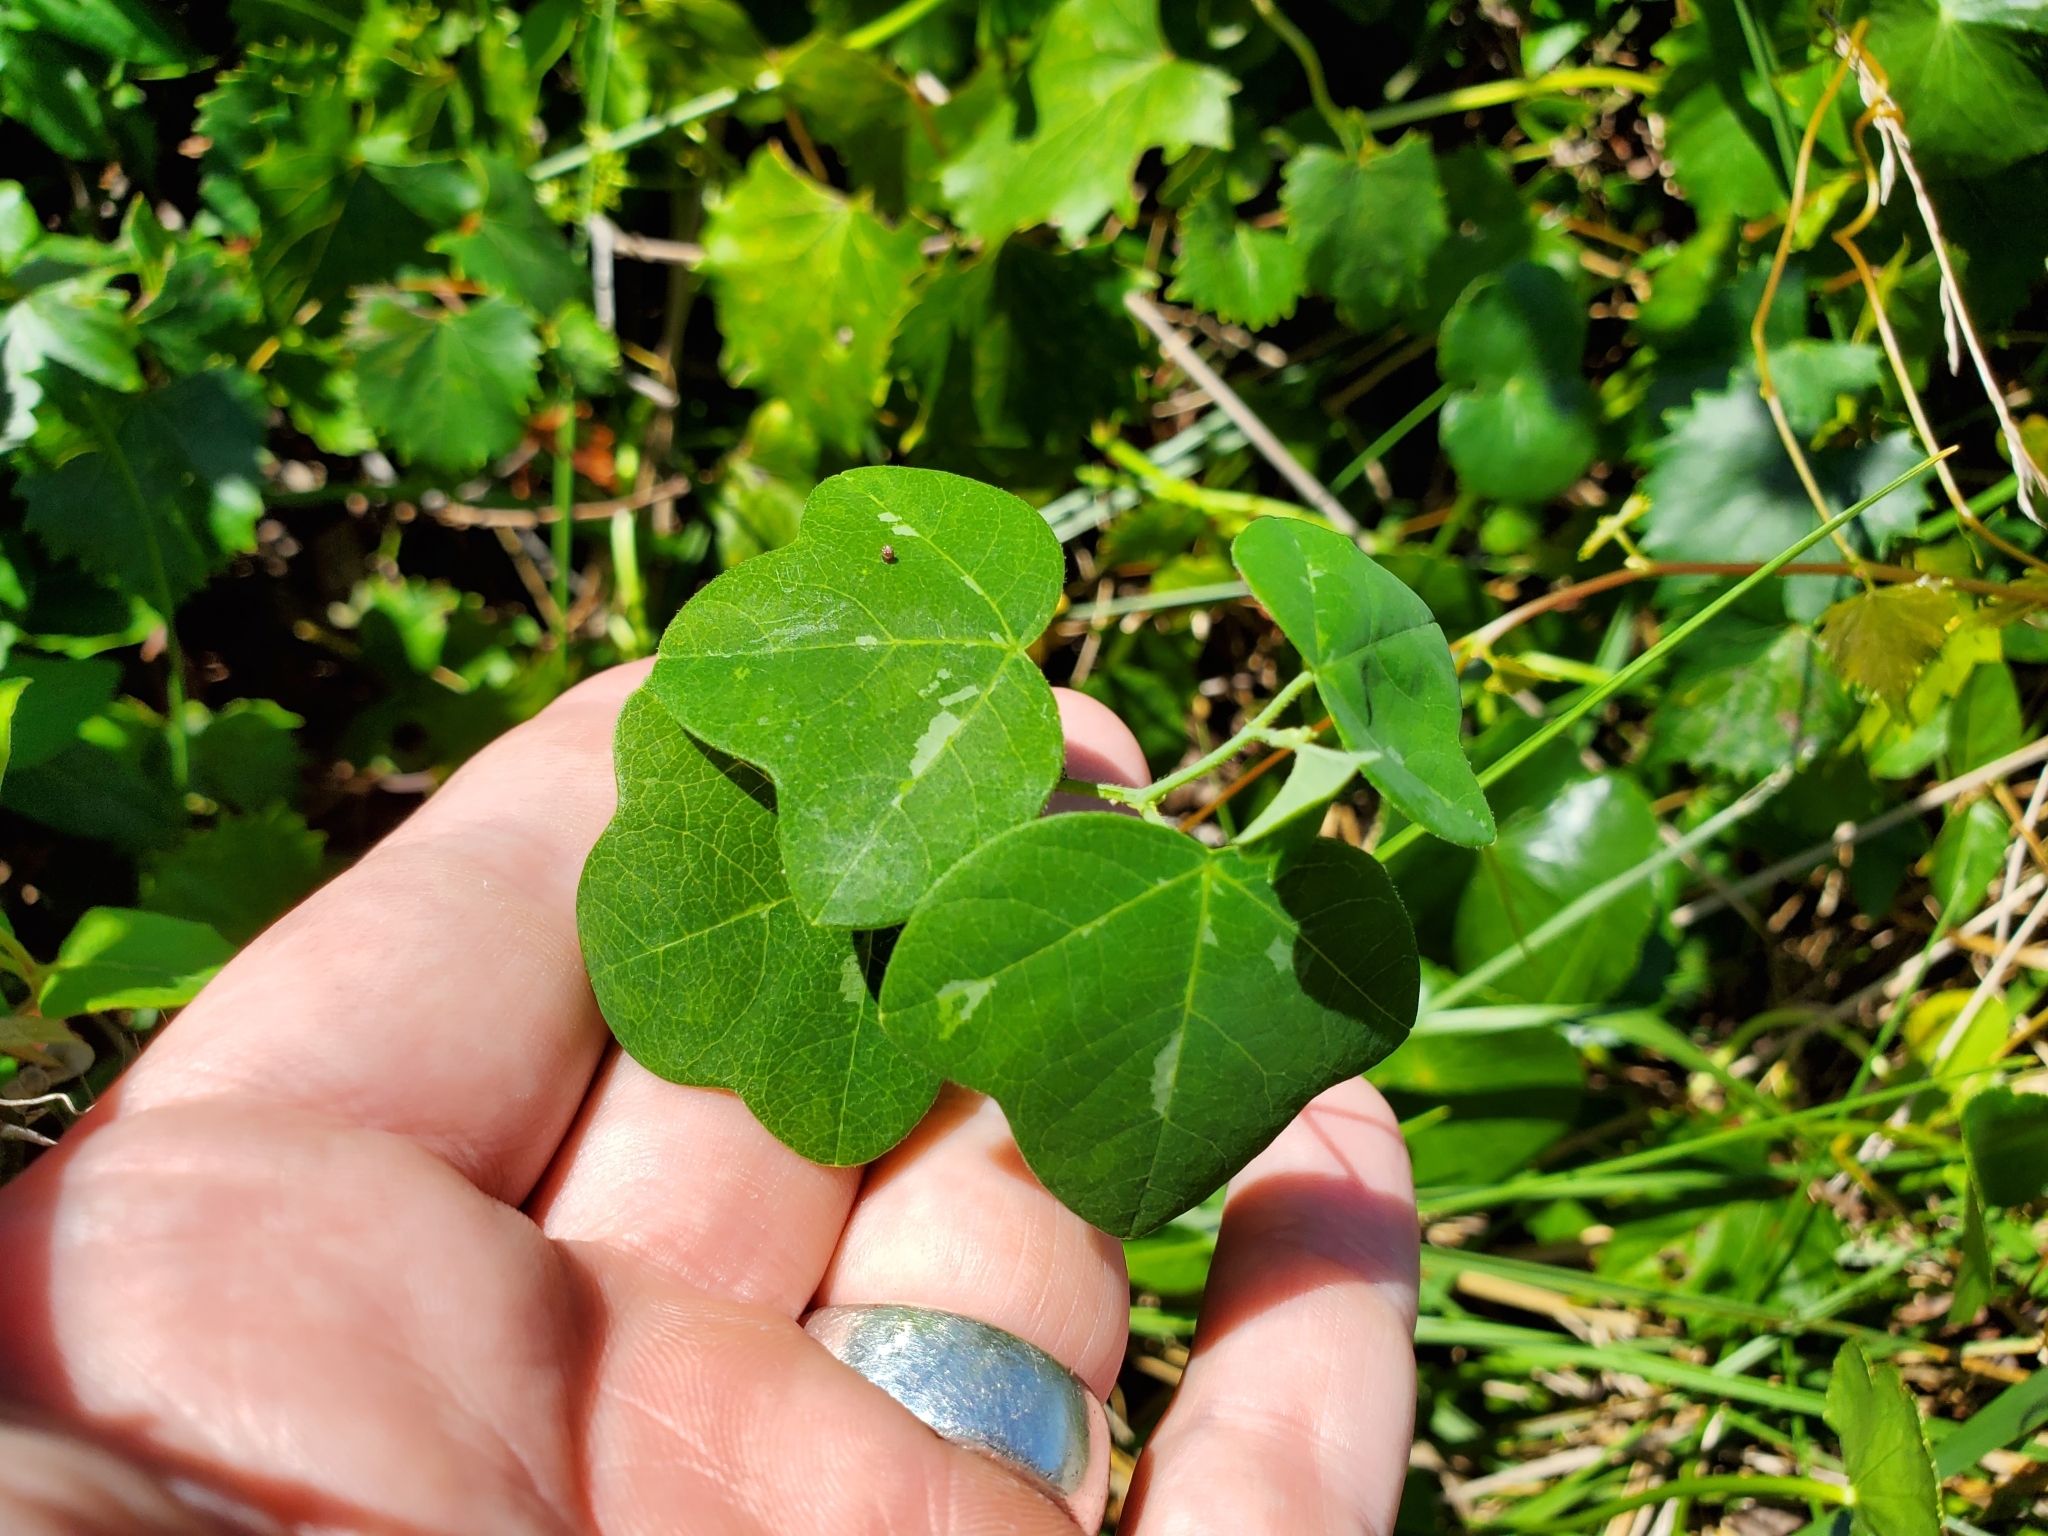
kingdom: Plantae
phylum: Tracheophyta
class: Magnoliopsida
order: Malpighiales
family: Passifloraceae
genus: Passiflora
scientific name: Passiflora lutea
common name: Yellow passionflower
